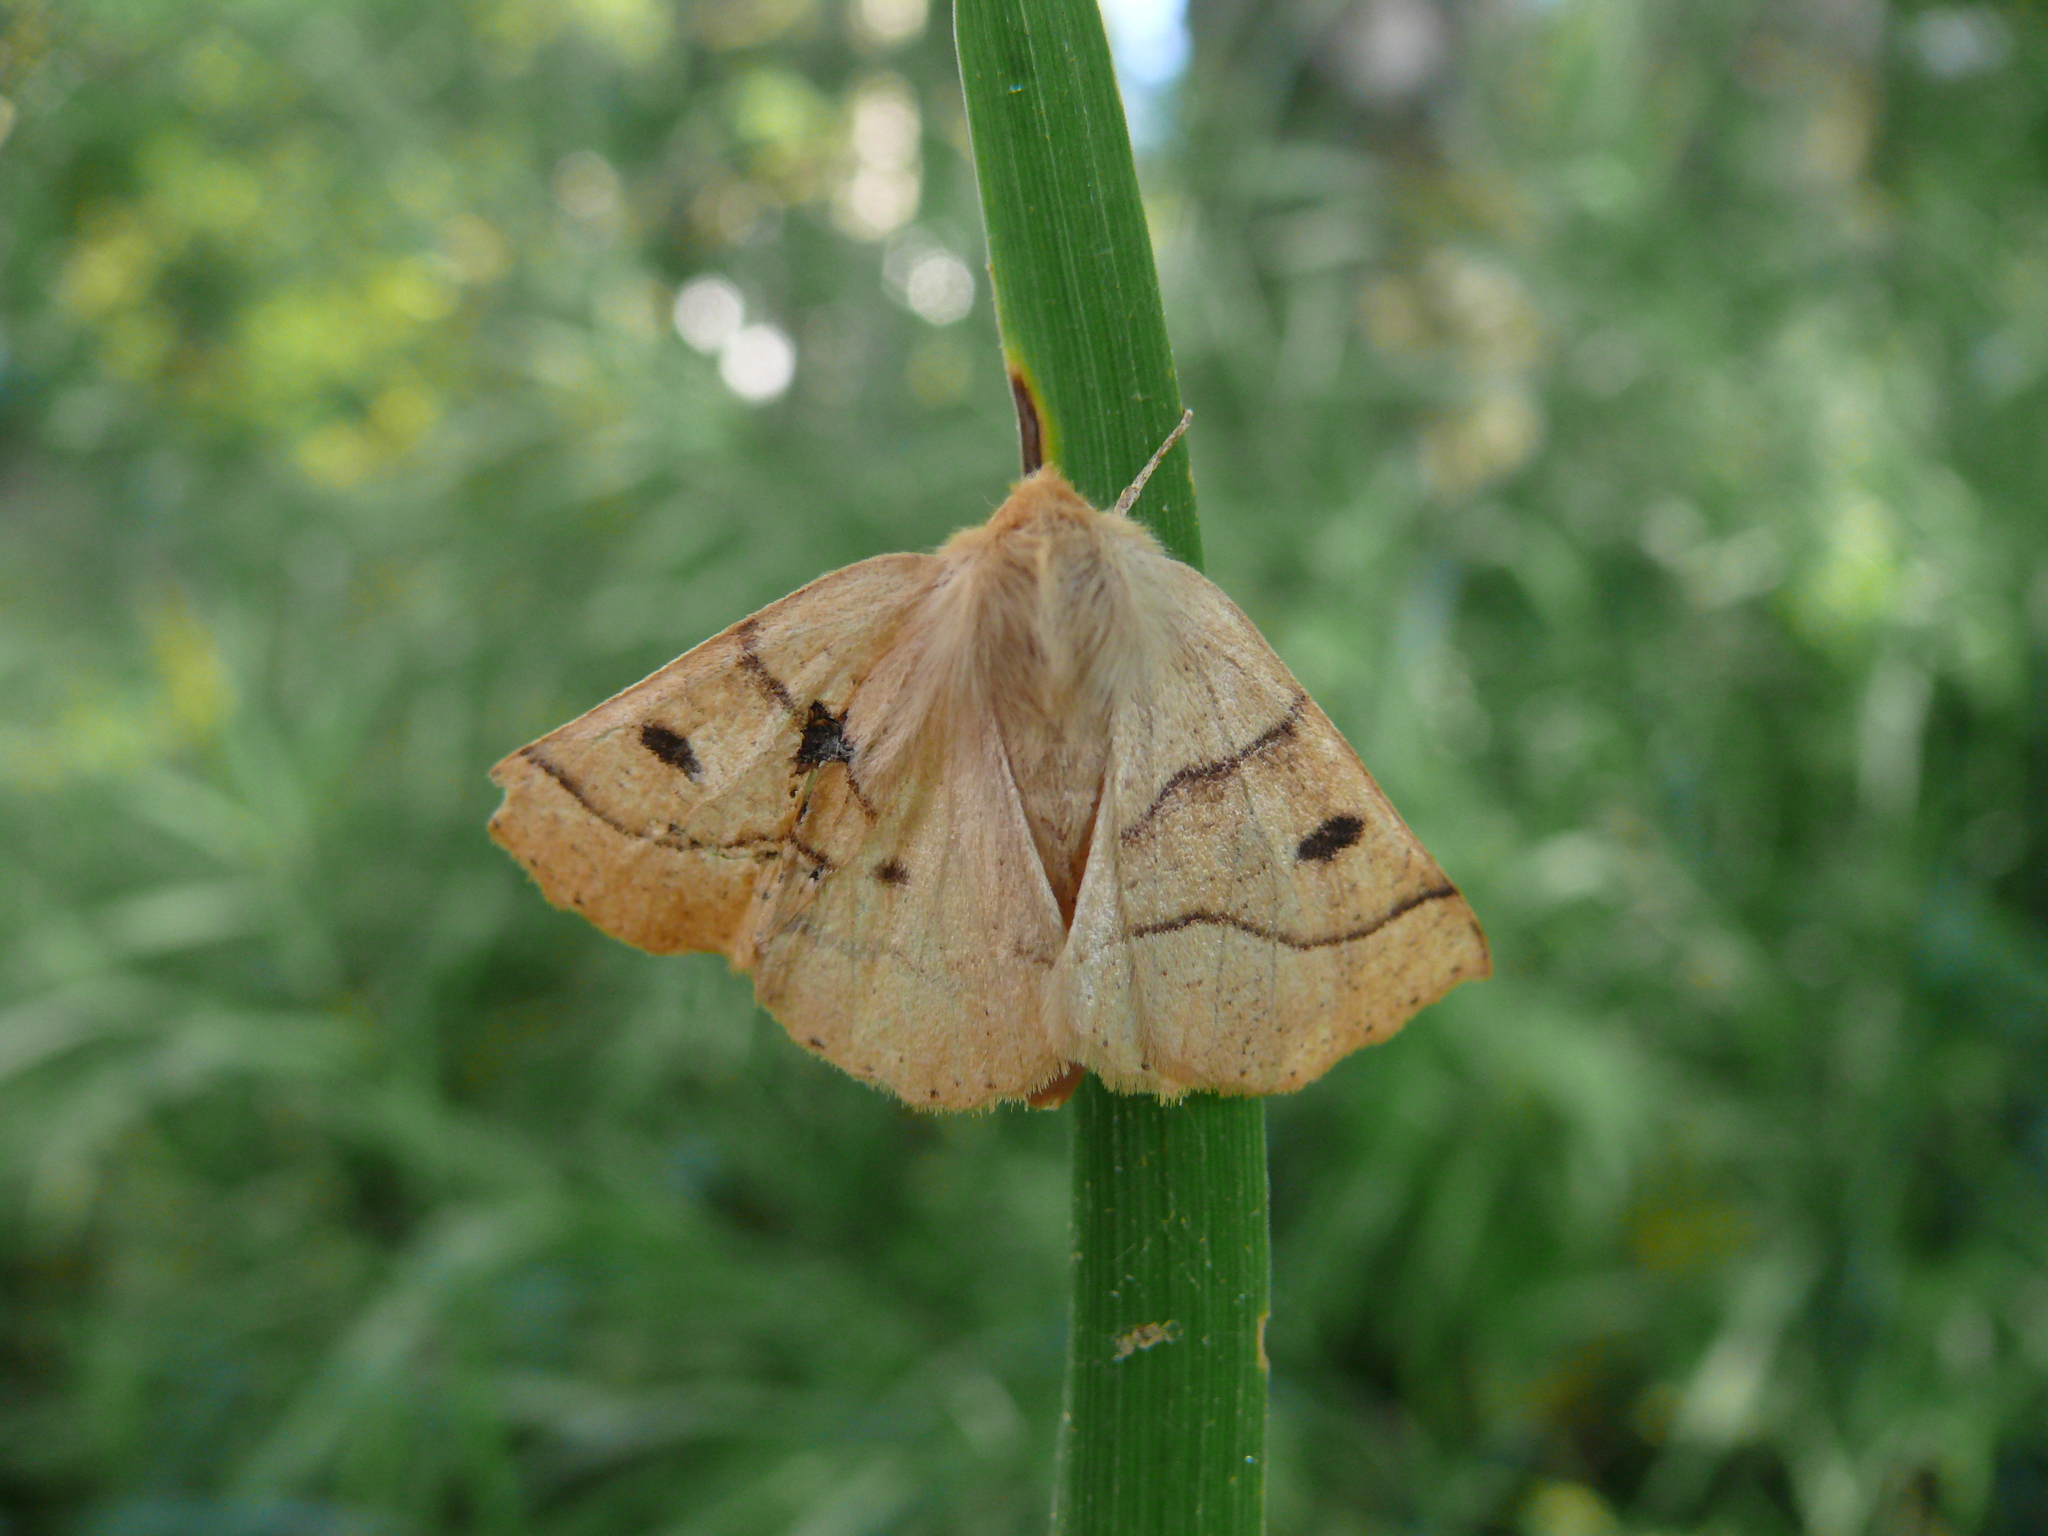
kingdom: Animalia
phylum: Arthropoda
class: Insecta
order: Lepidoptera
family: Geometridae
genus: Crocallis
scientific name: Crocallis elinguaria
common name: Scalloped oak
